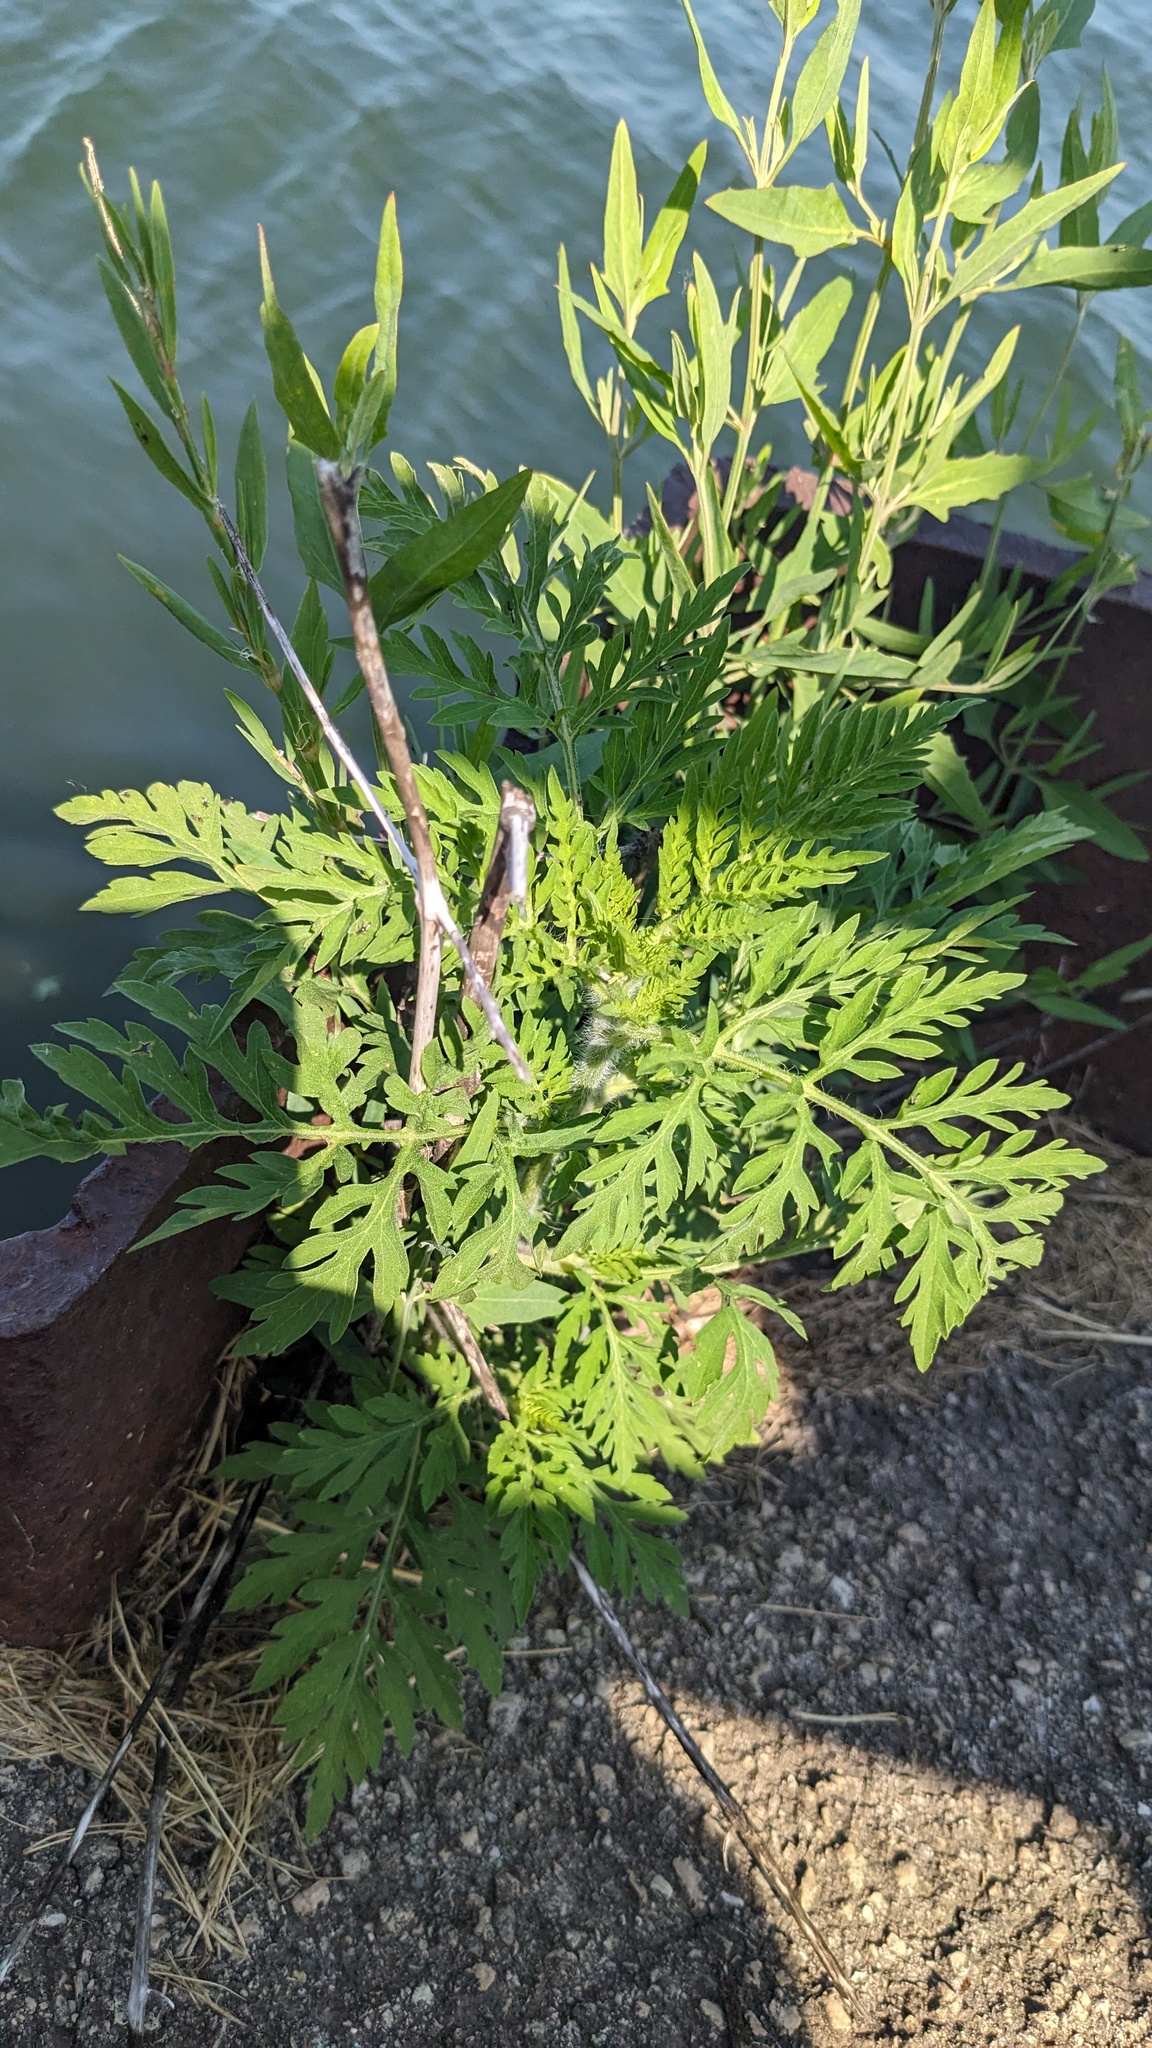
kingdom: Plantae
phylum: Tracheophyta
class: Magnoliopsida
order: Asterales
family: Asteraceae
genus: Ambrosia
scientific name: Ambrosia artemisiifolia
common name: Annual ragweed
